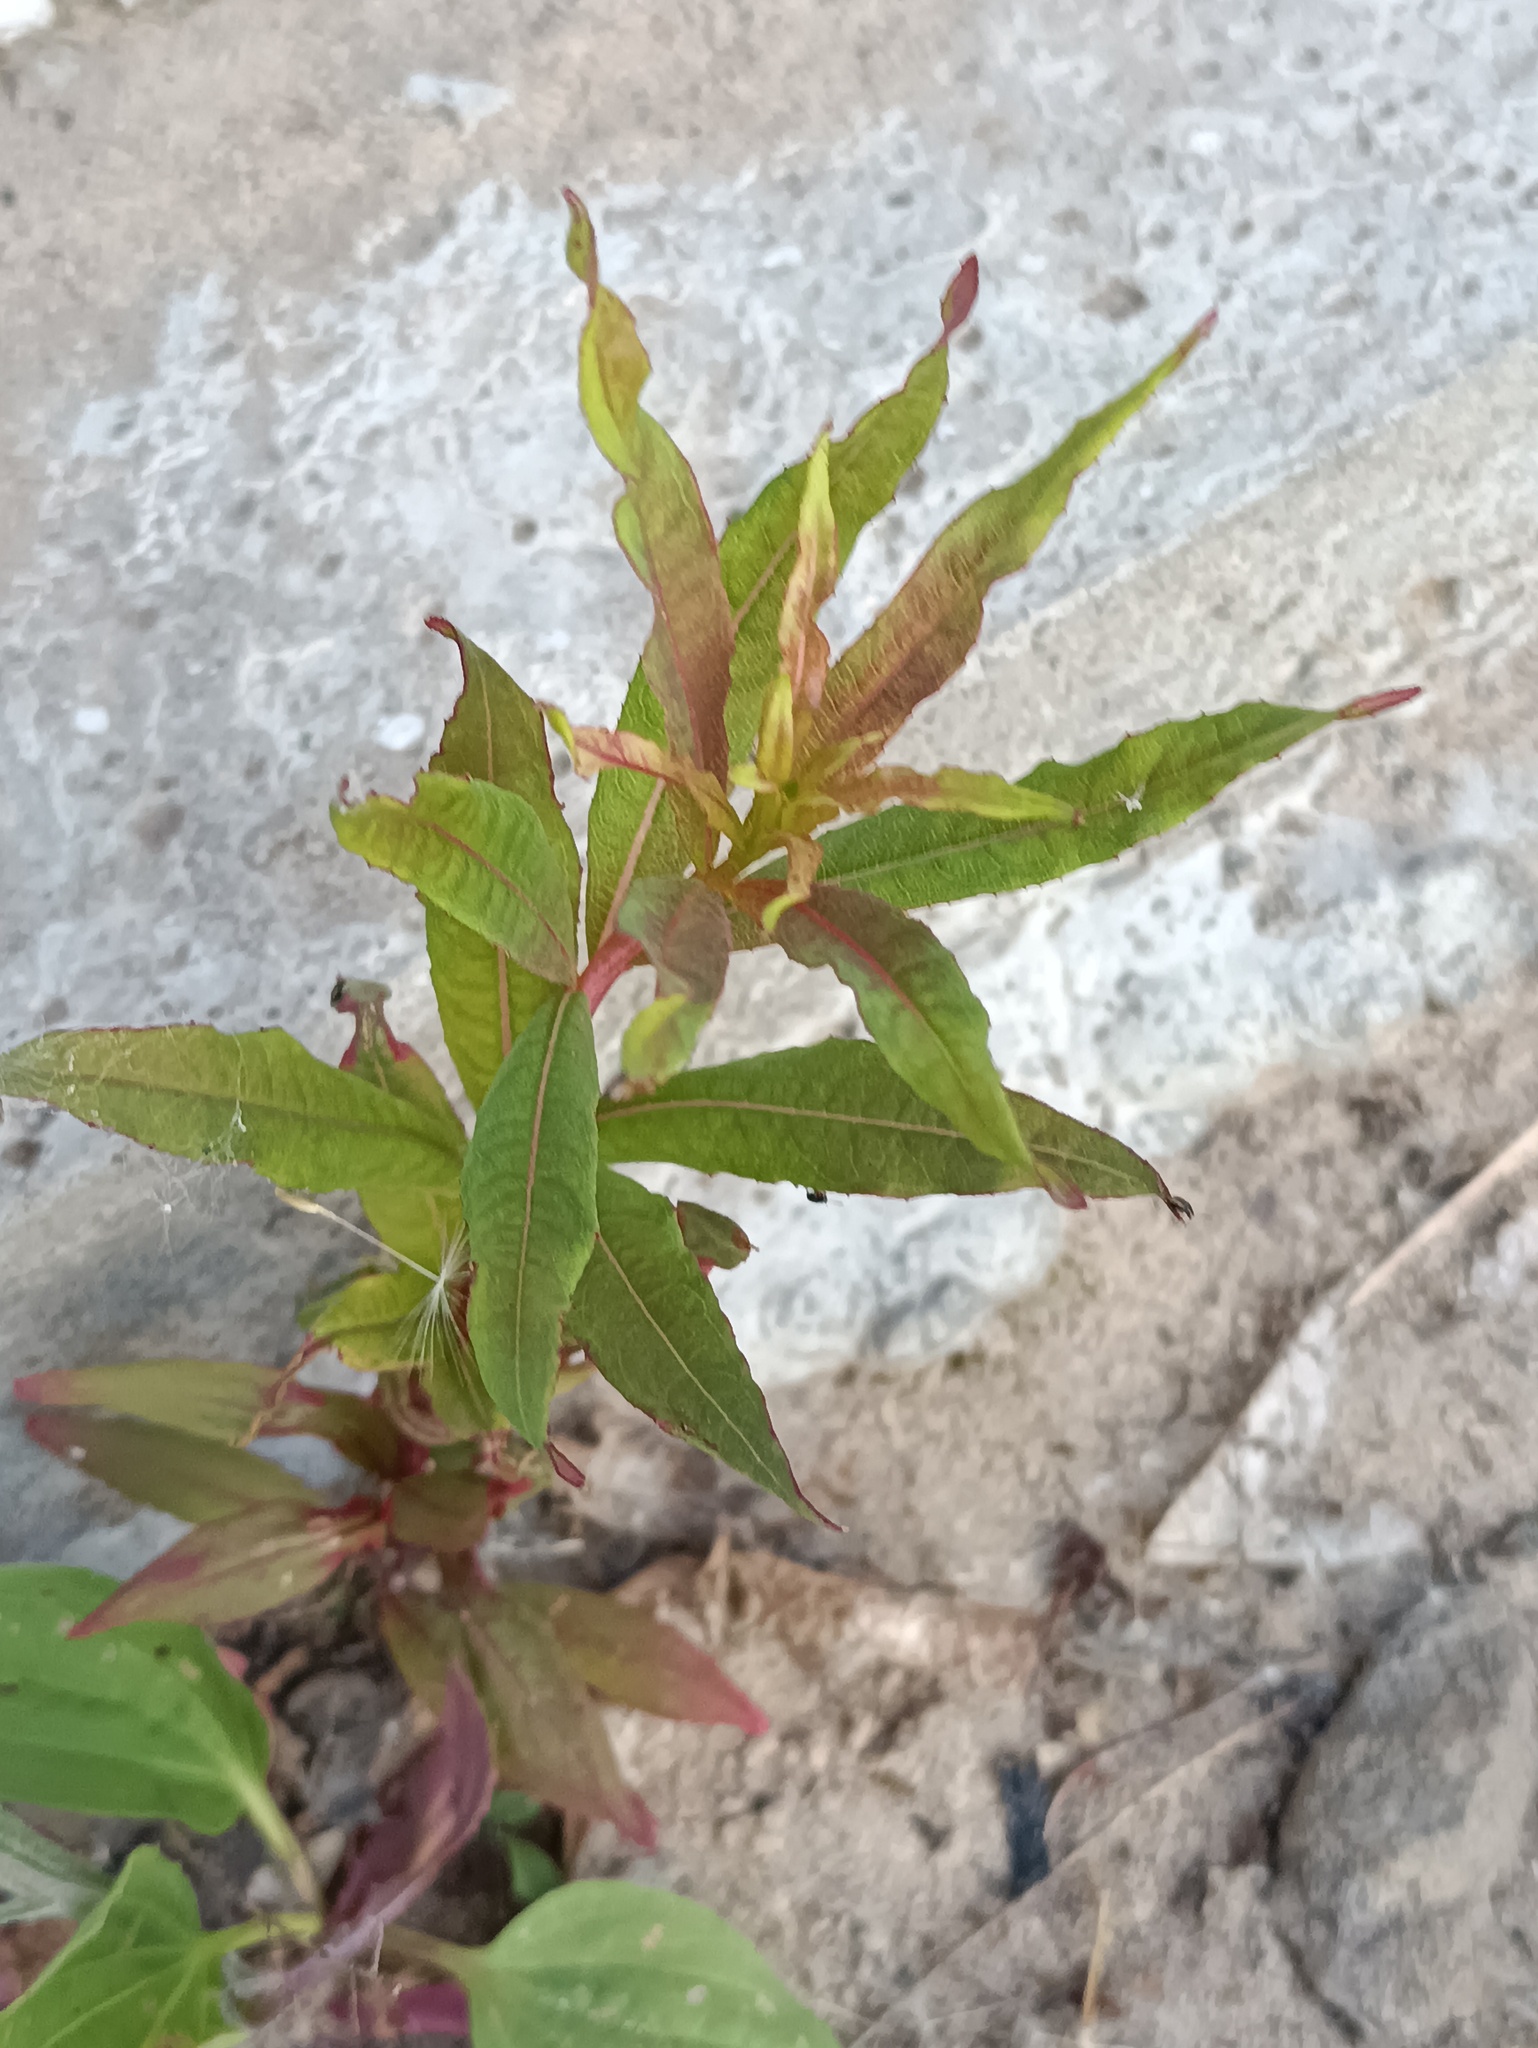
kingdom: Plantae
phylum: Tracheophyta
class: Magnoliopsida
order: Myrtales
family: Onagraceae
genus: Chamaenerion
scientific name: Chamaenerion angustifolium
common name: Fireweed
